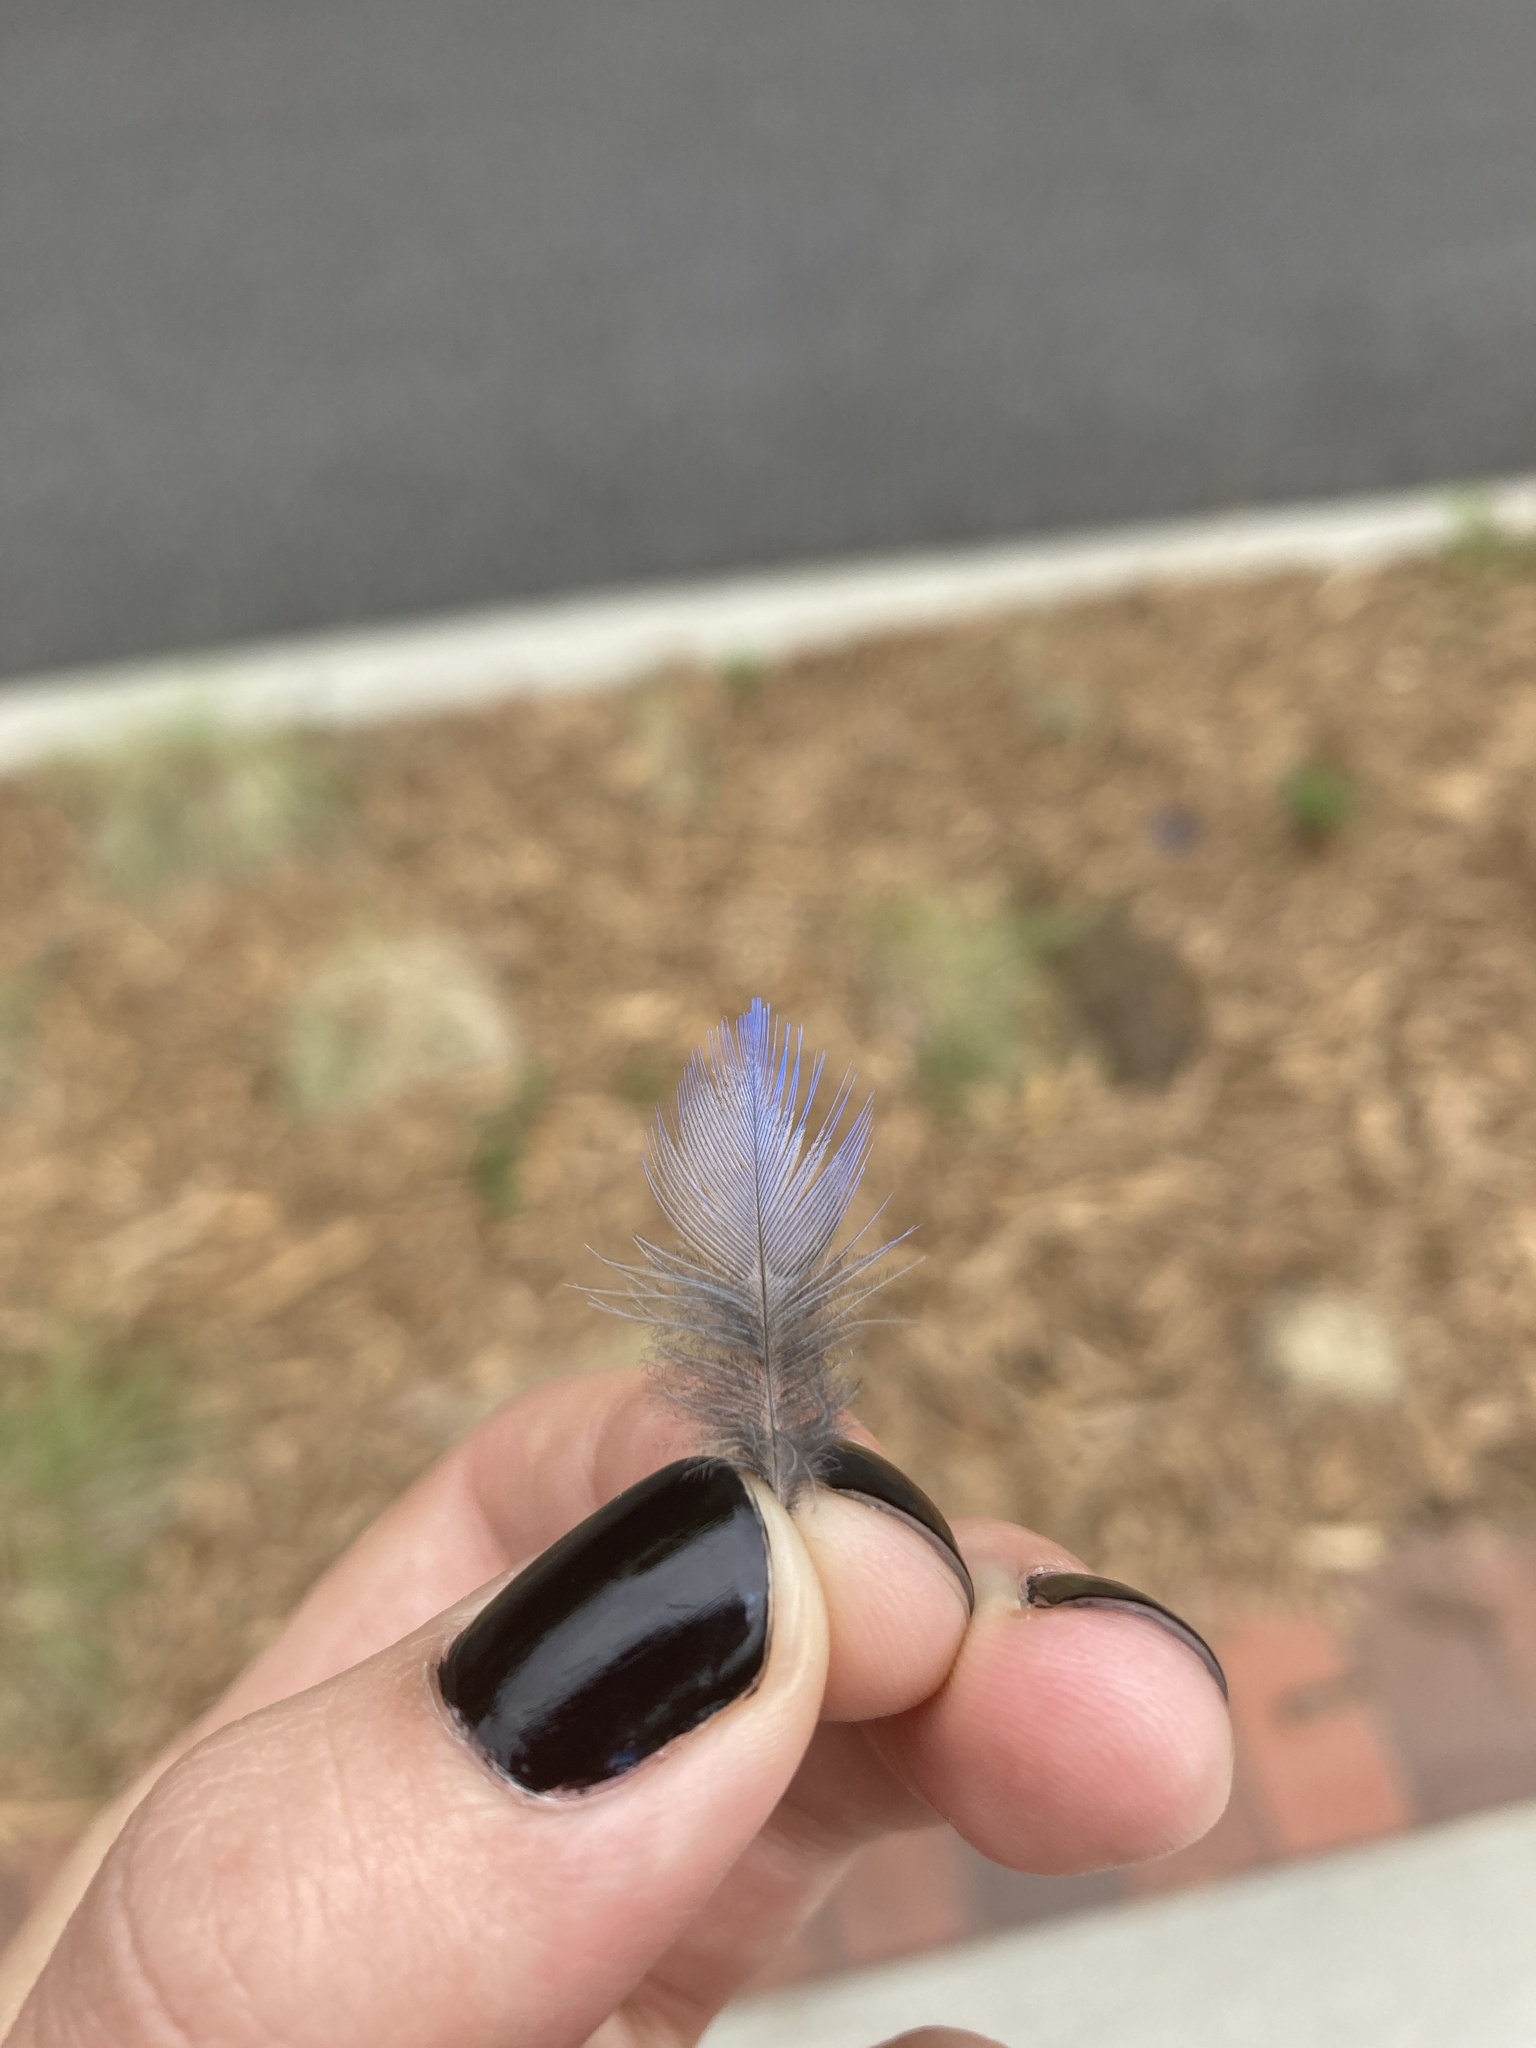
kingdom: Animalia
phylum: Chordata
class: Aves
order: Passeriformes
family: Turdidae
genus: Sialia
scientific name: Sialia sialis
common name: Eastern bluebird
